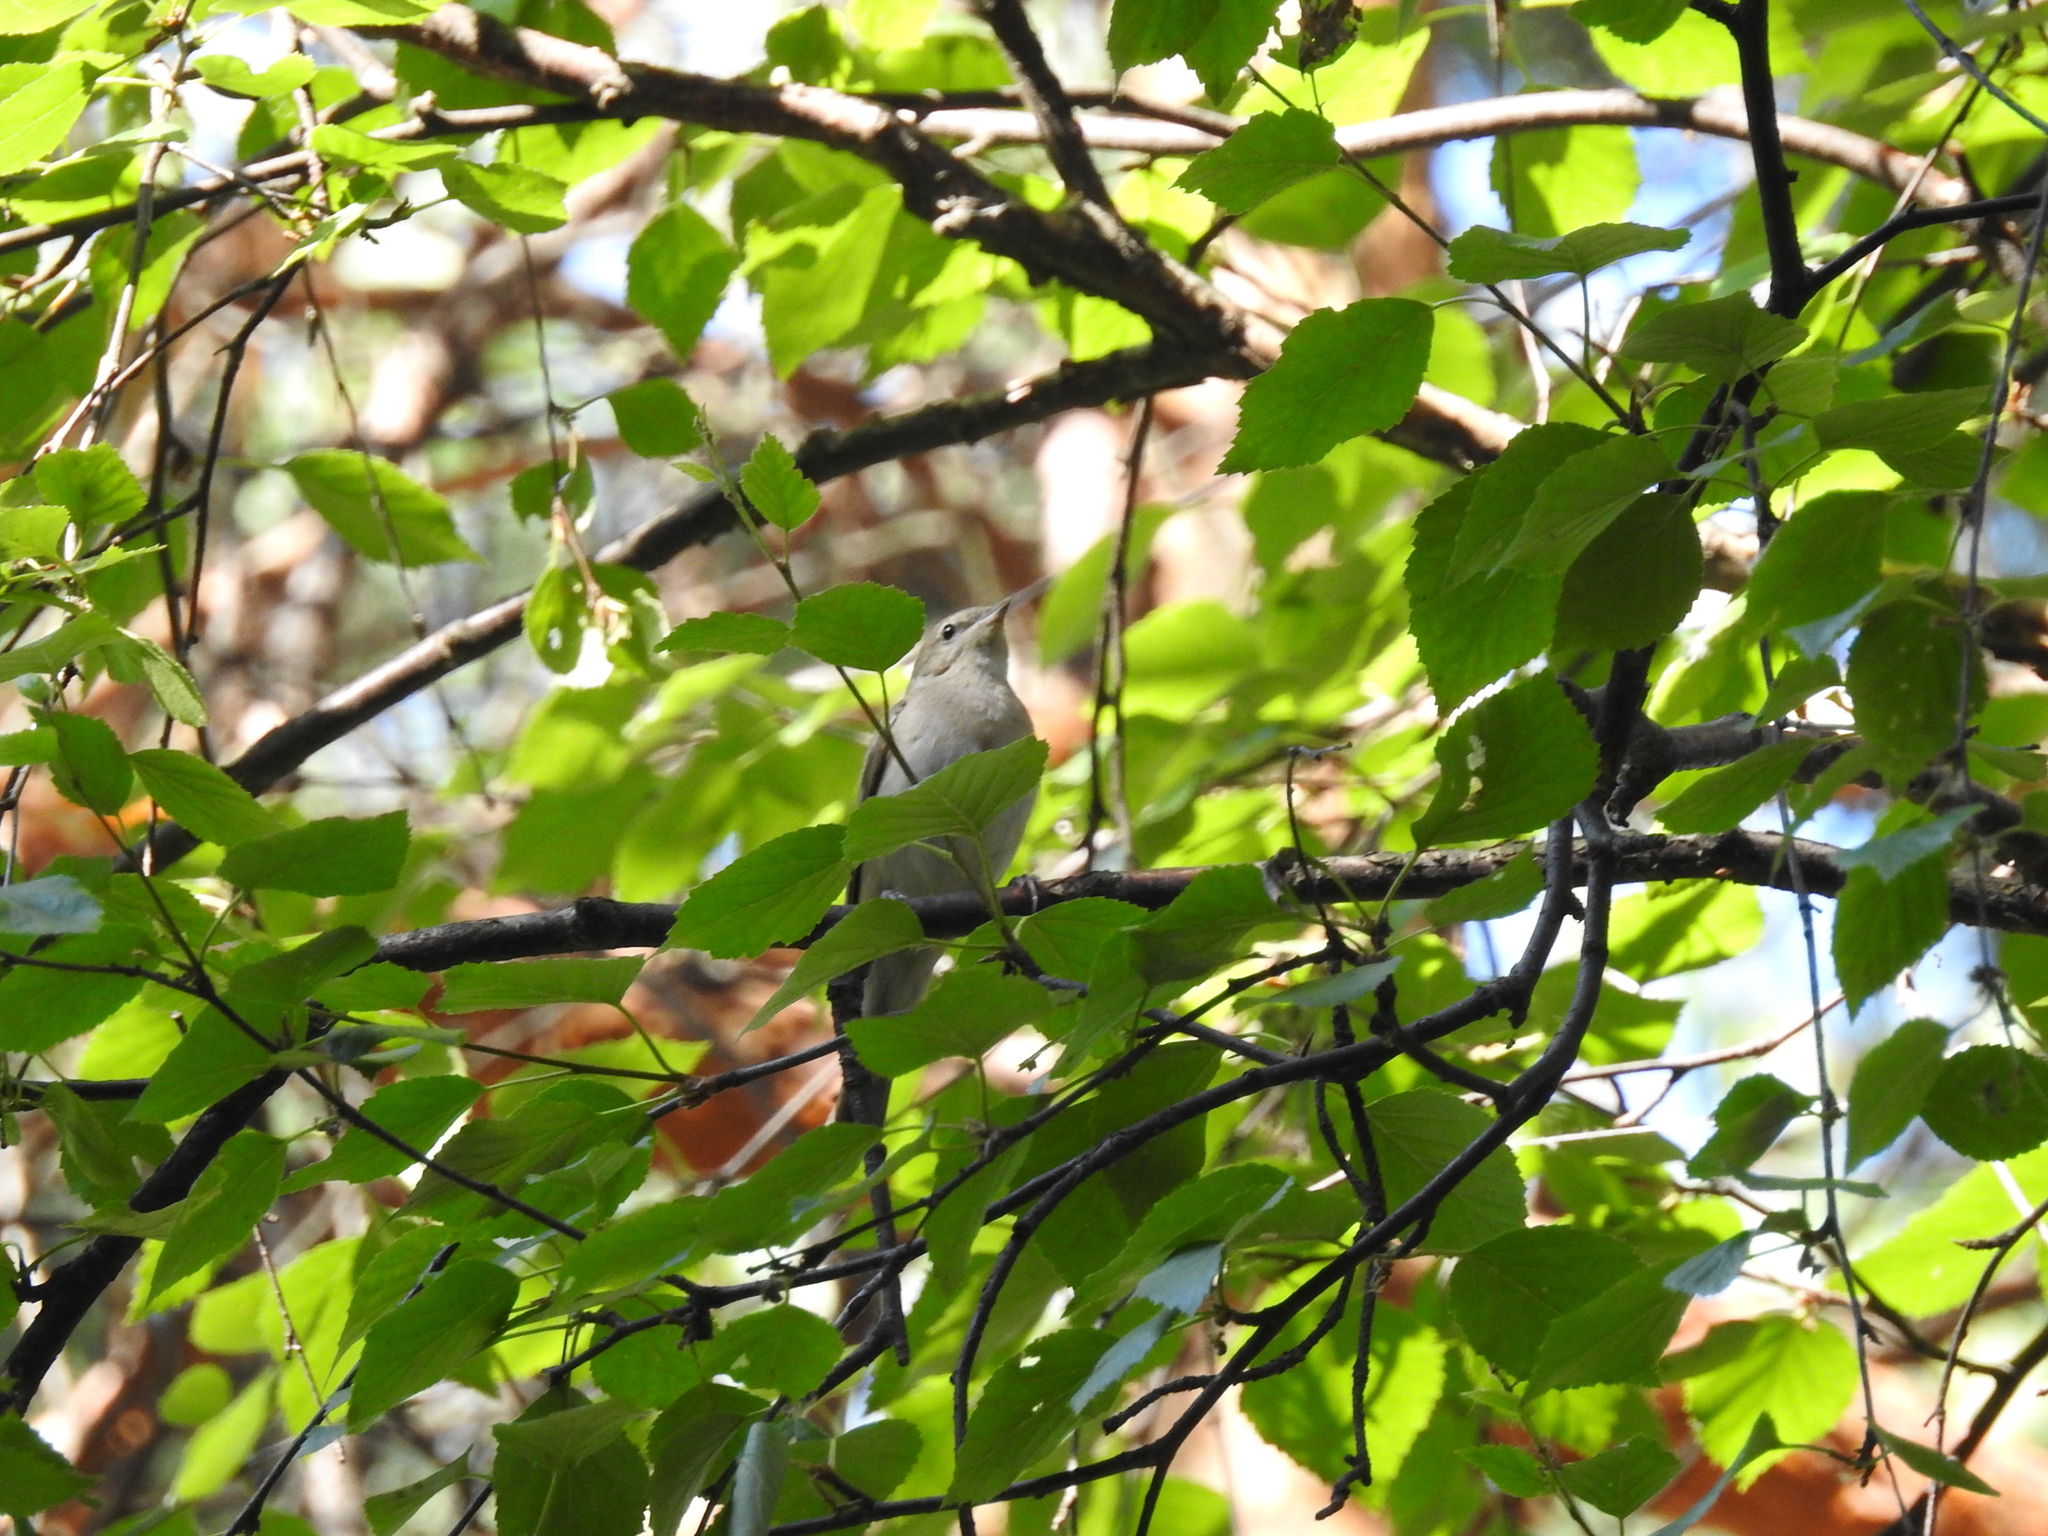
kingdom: Animalia
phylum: Chordata
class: Aves
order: Passeriformes
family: Sylviidae
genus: Sylvia
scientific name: Sylvia borin
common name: Garden warbler
